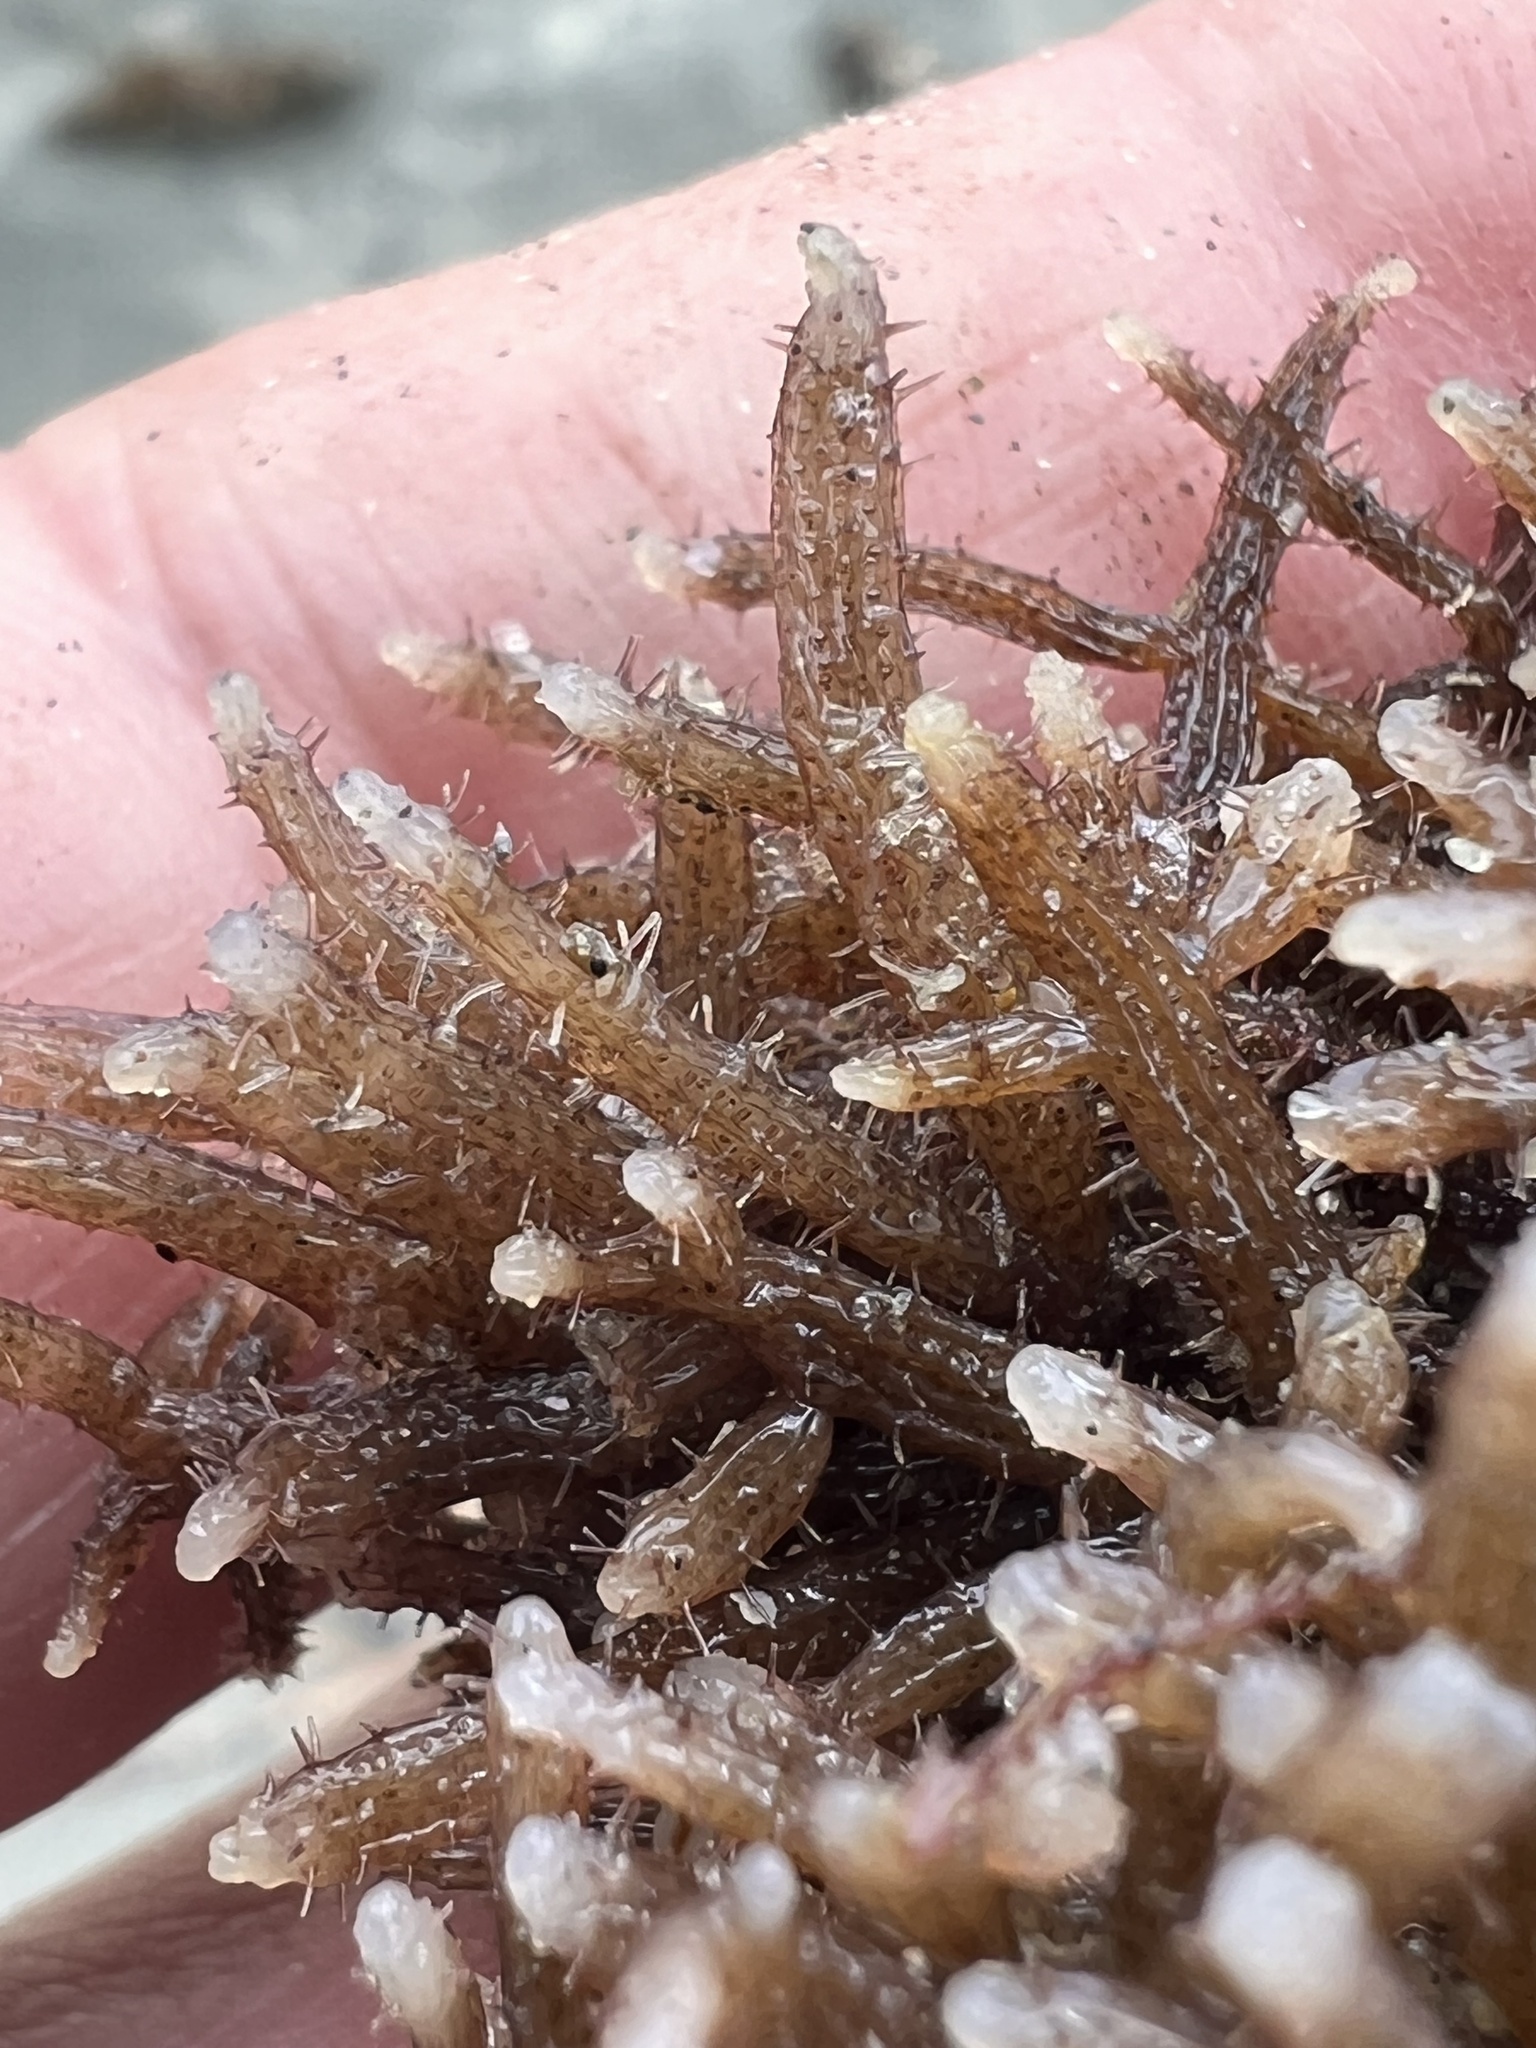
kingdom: Animalia
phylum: Bryozoa
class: Gymnolaemata
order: Ctenostomatida
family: Flustrellidridae
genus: Elzerina
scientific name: Elzerina binderi
